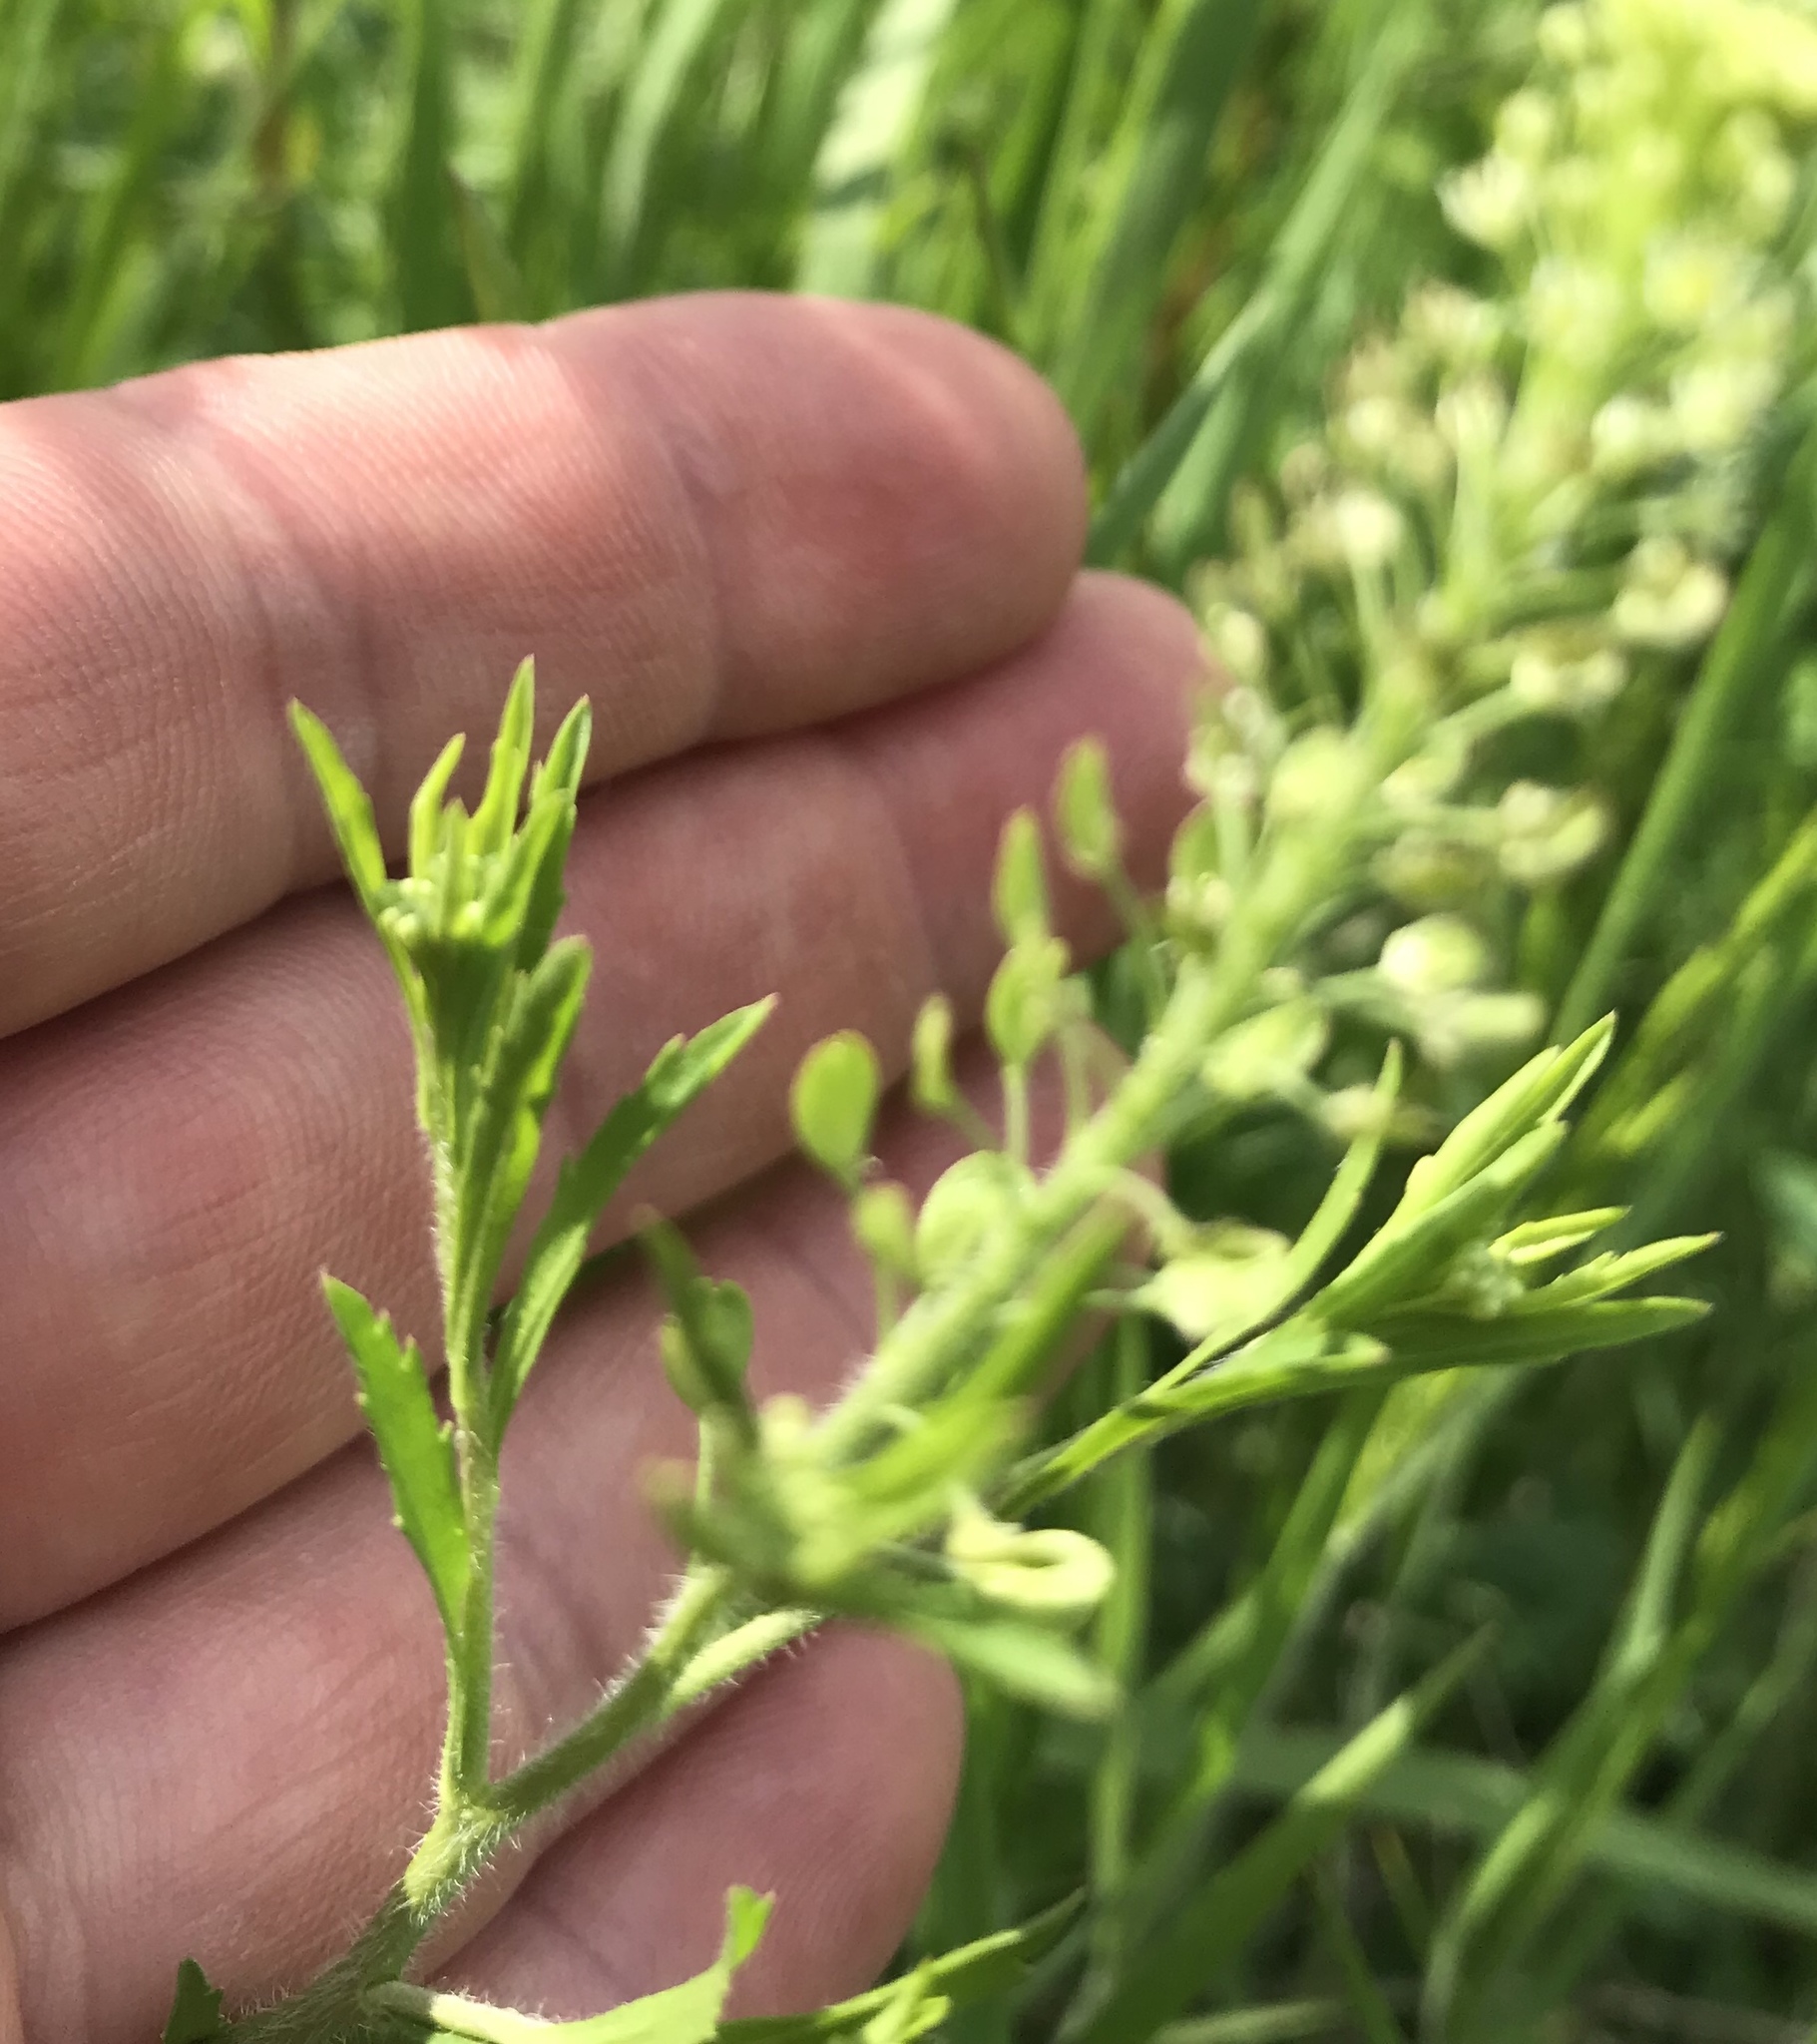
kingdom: Plantae
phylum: Tracheophyta
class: Magnoliopsida
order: Brassicales
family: Brassicaceae
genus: Lepidium
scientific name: Lepidium virginicum
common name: Least pepperwort
